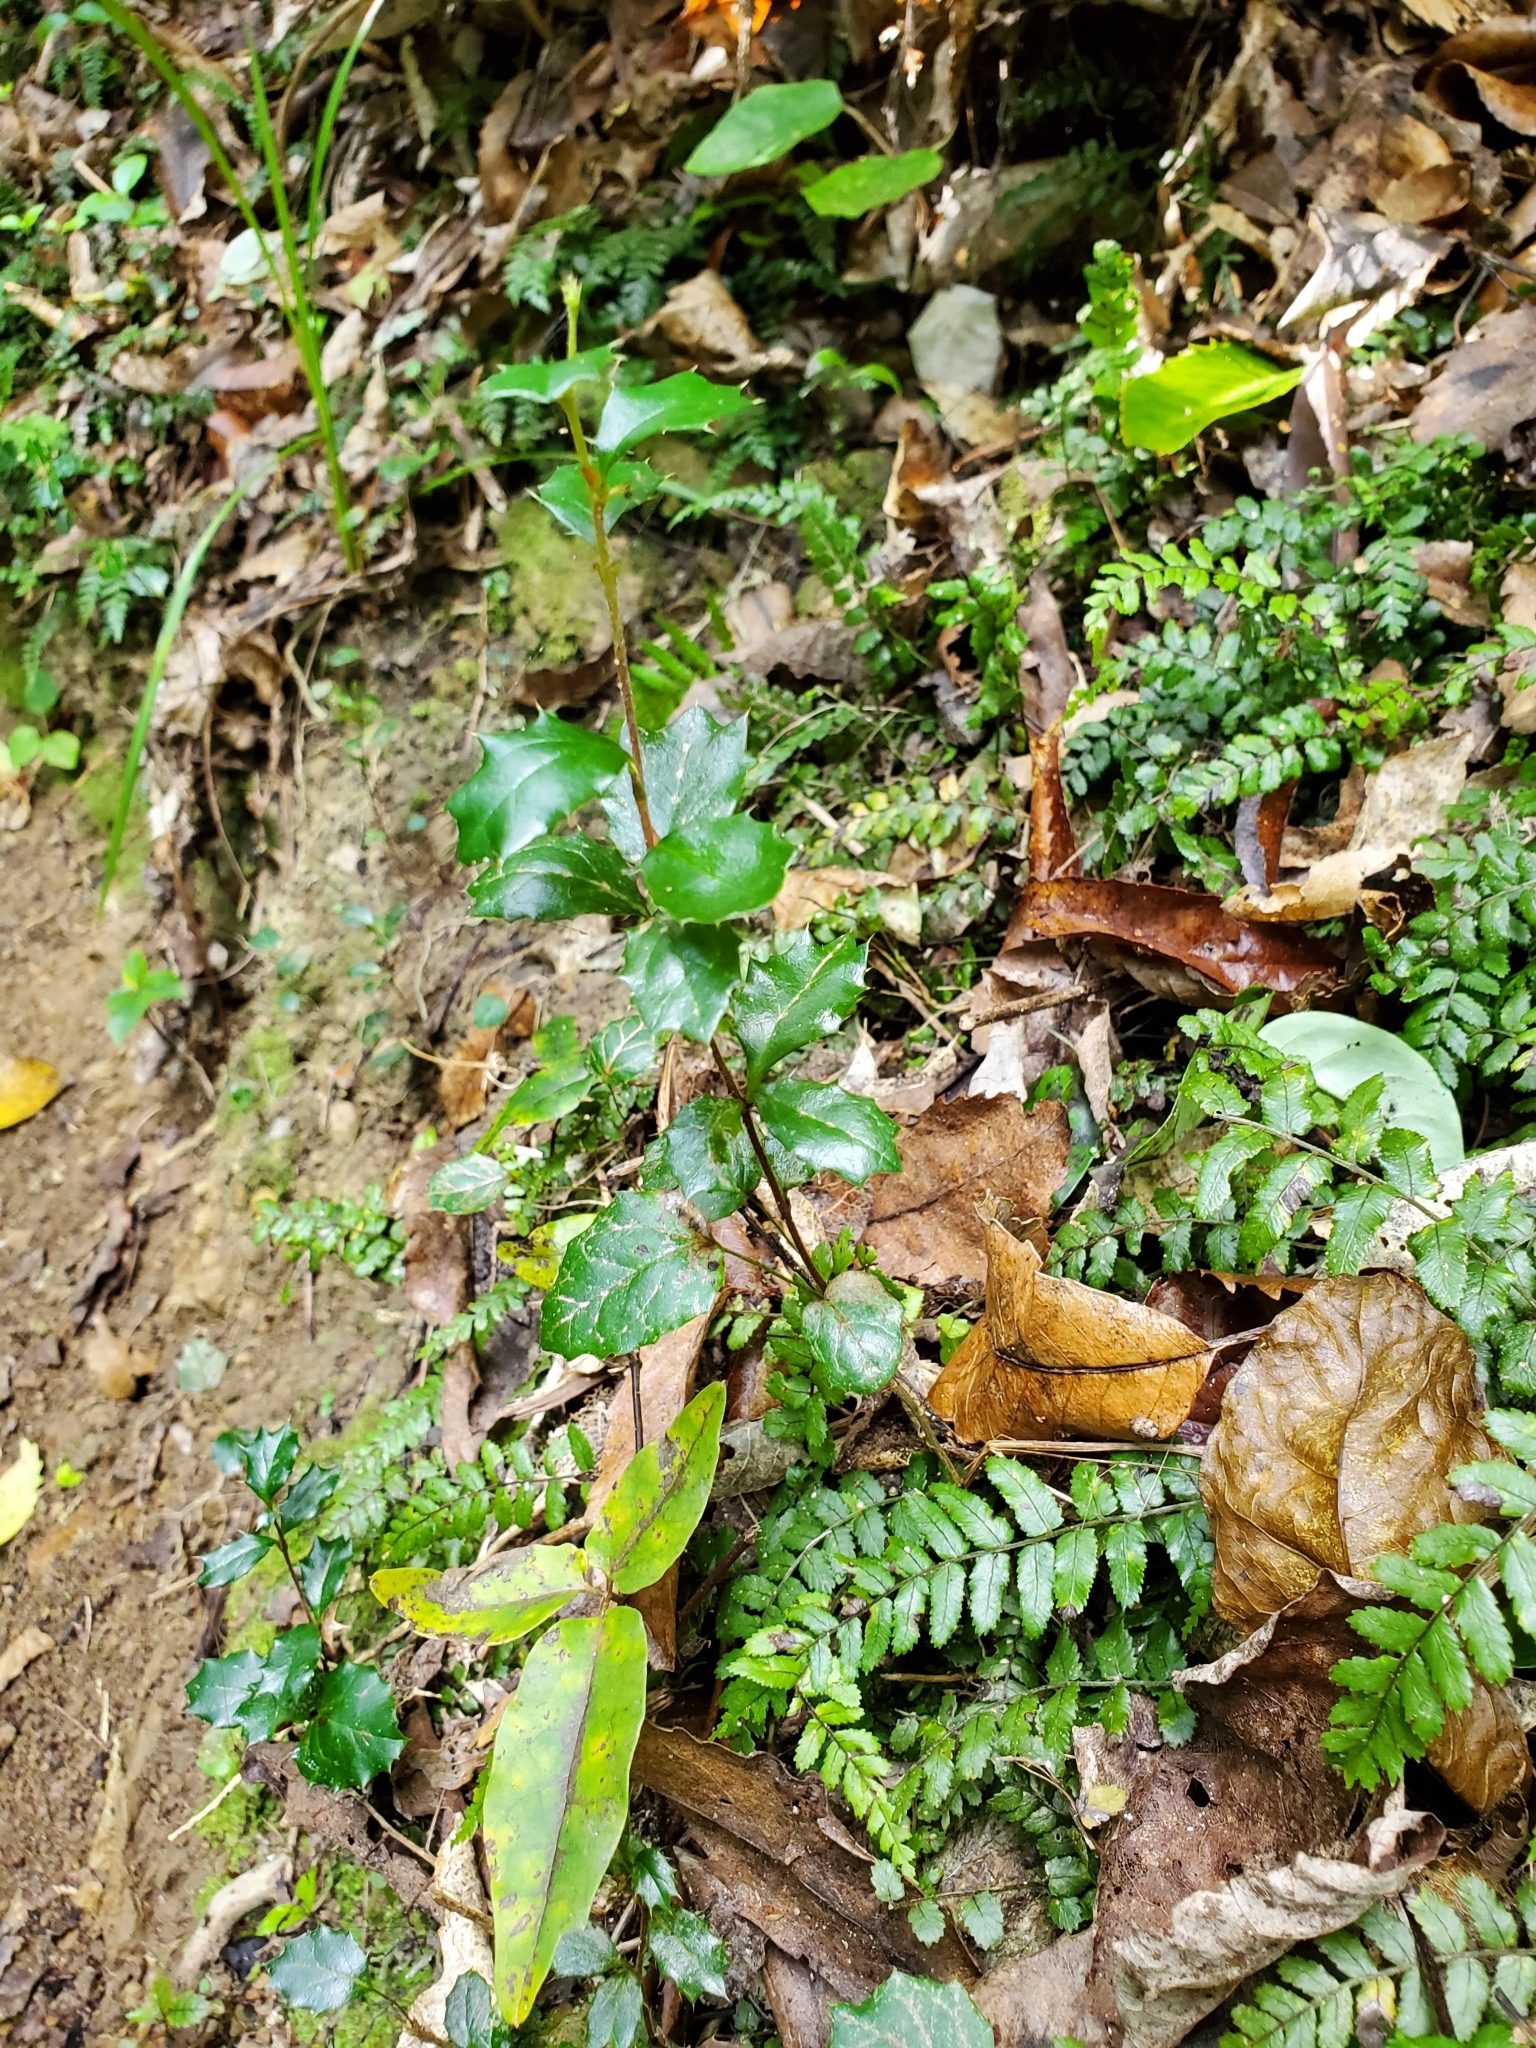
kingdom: Plantae
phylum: Tracheophyta
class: Magnoliopsida
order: Ranunculales
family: Berberidaceae
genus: Berberis
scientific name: Berberis darwinii
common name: Darwin's barberry
